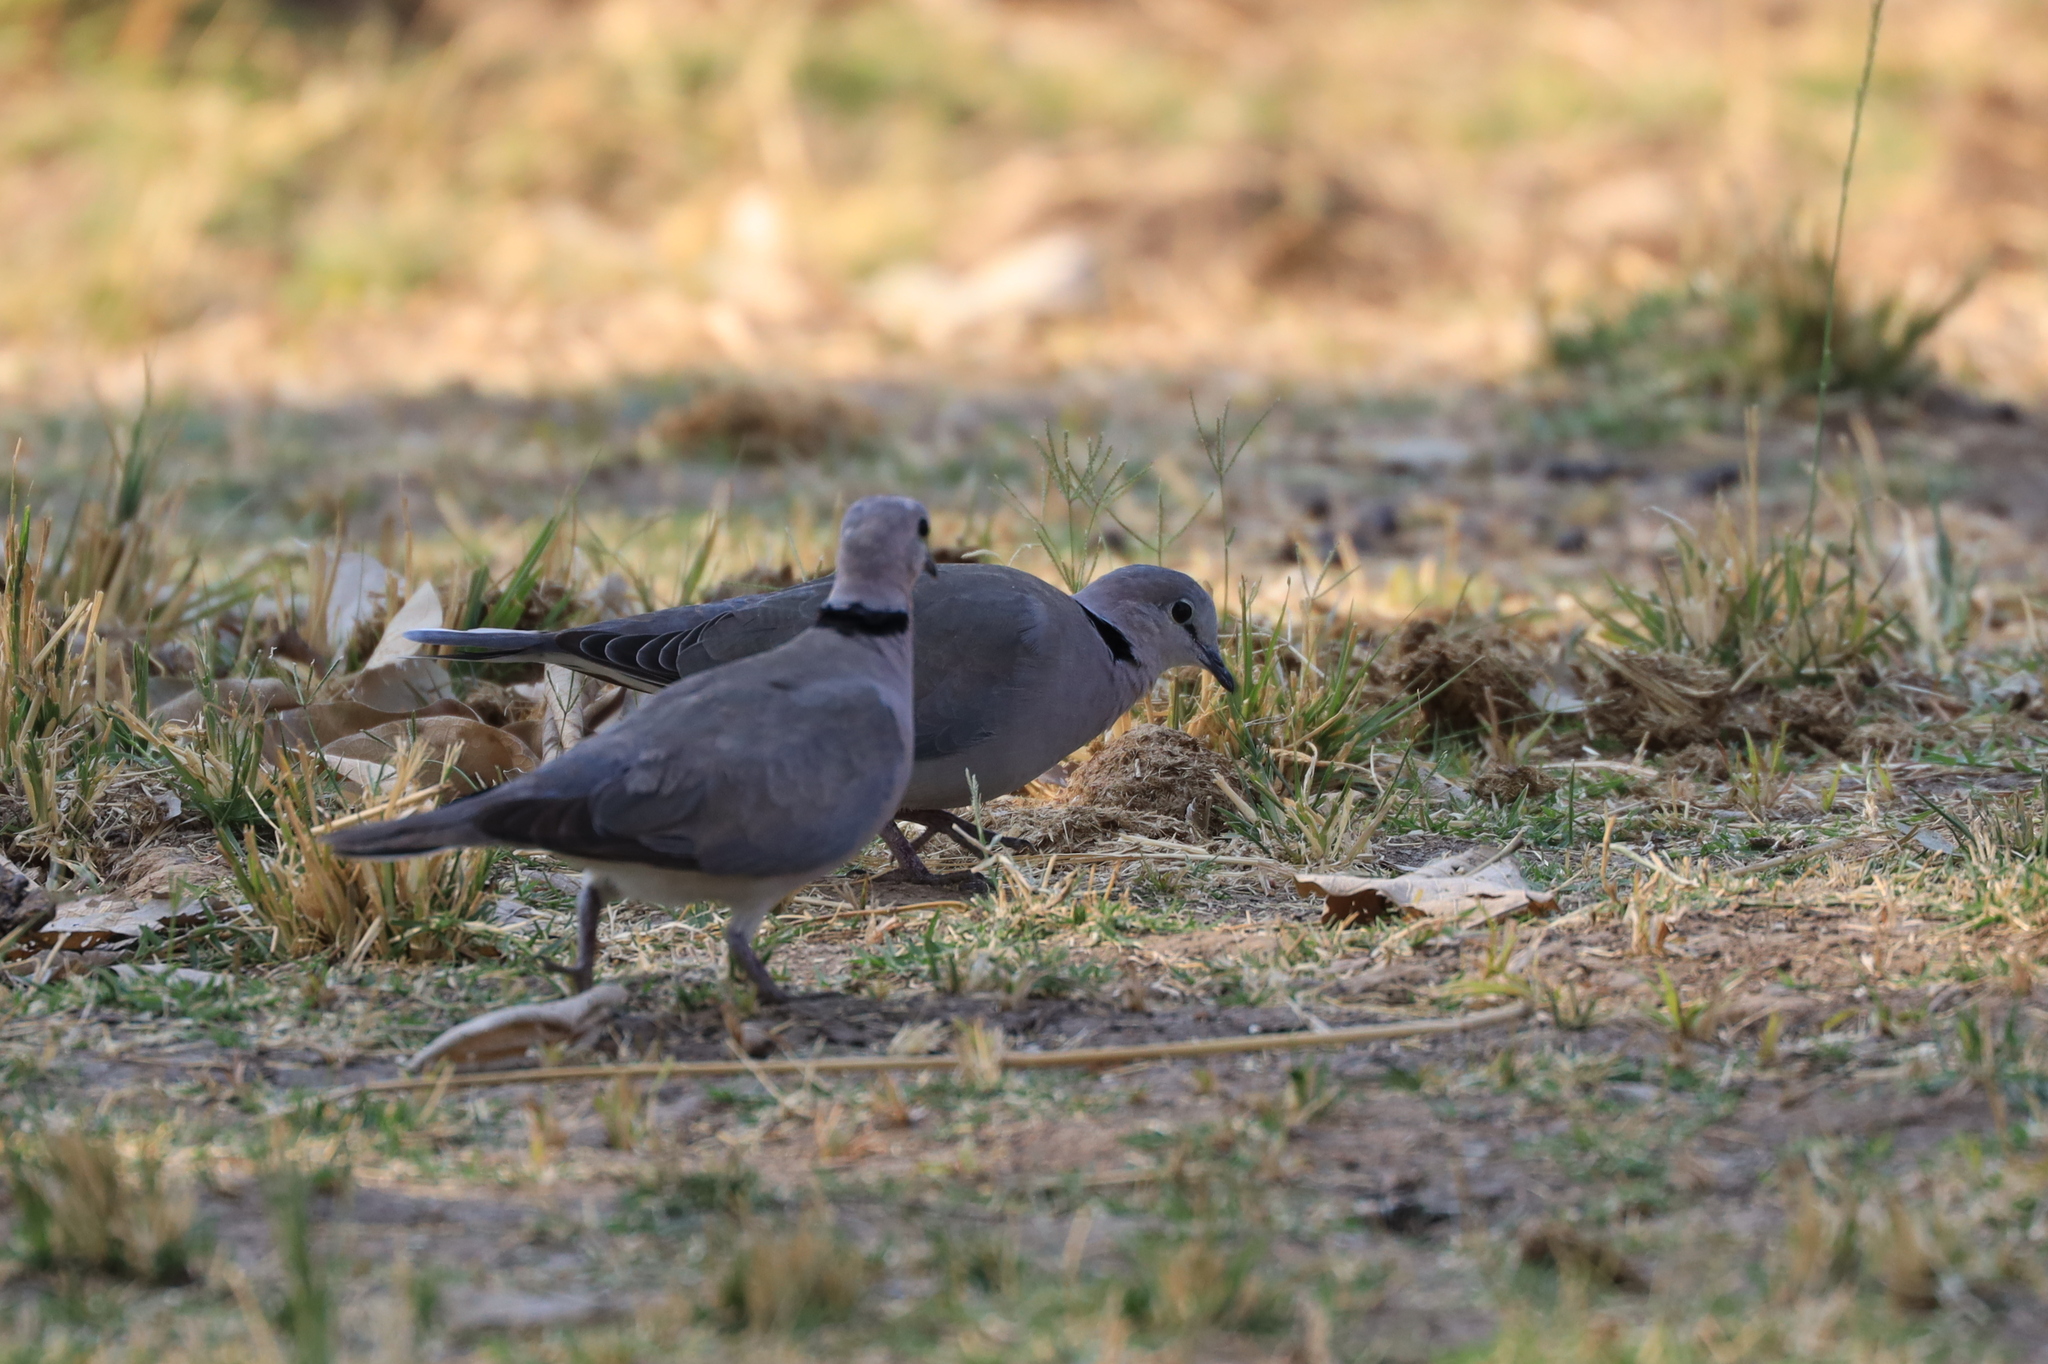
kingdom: Animalia
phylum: Chordata
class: Aves
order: Columbiformes
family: Columbidae
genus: Streptopelia
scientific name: Streptopelia capicola
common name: Ring-necked dove
